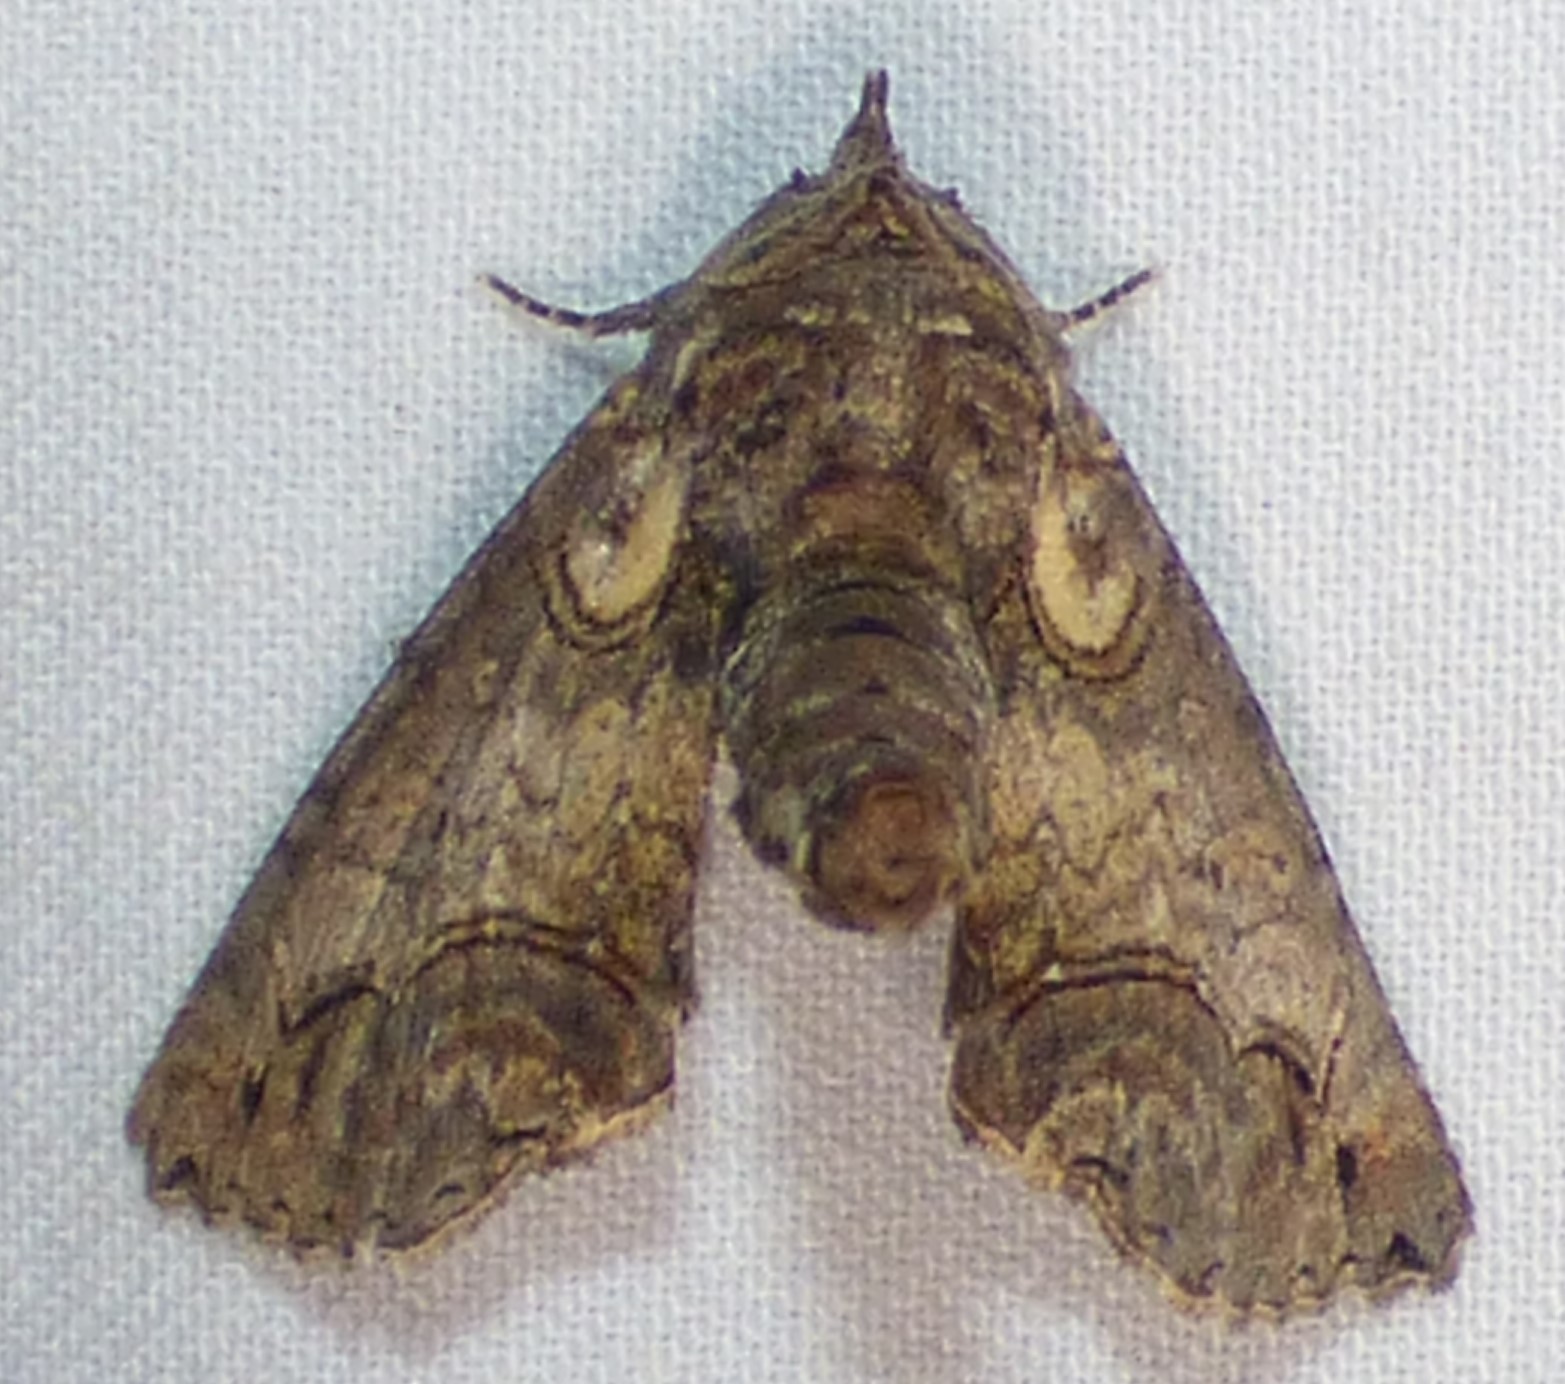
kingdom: Animalia
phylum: Arthropoda
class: Insecta
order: Lepidoptera
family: Euteliidae
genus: Paectes
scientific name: Paectes abrostoloides
